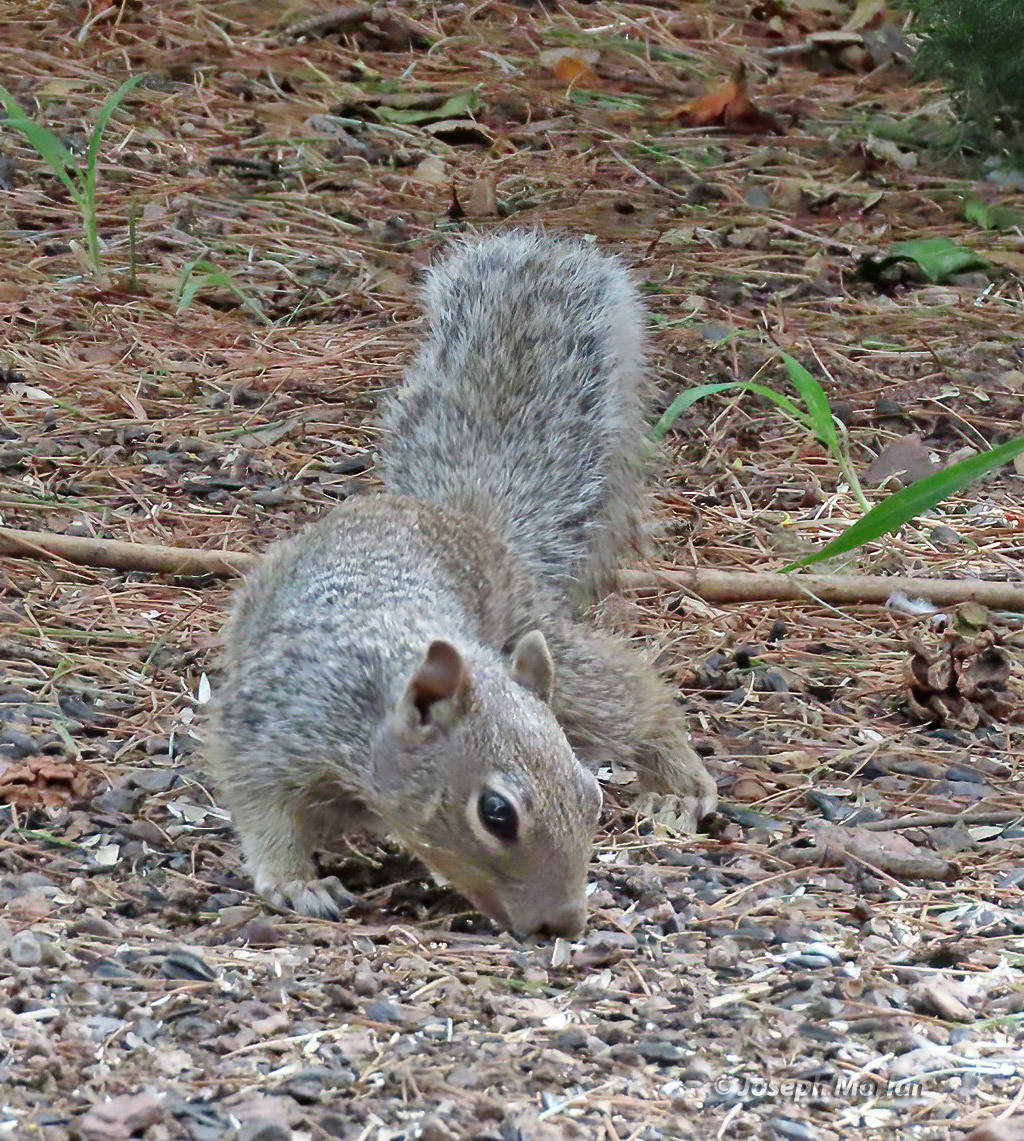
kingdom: Animalia
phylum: Chordata
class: Mammalia
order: Rodentia
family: Sciuridae
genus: Otospermophilus
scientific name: Otospermophilus variegatus
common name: Rock squirrel
